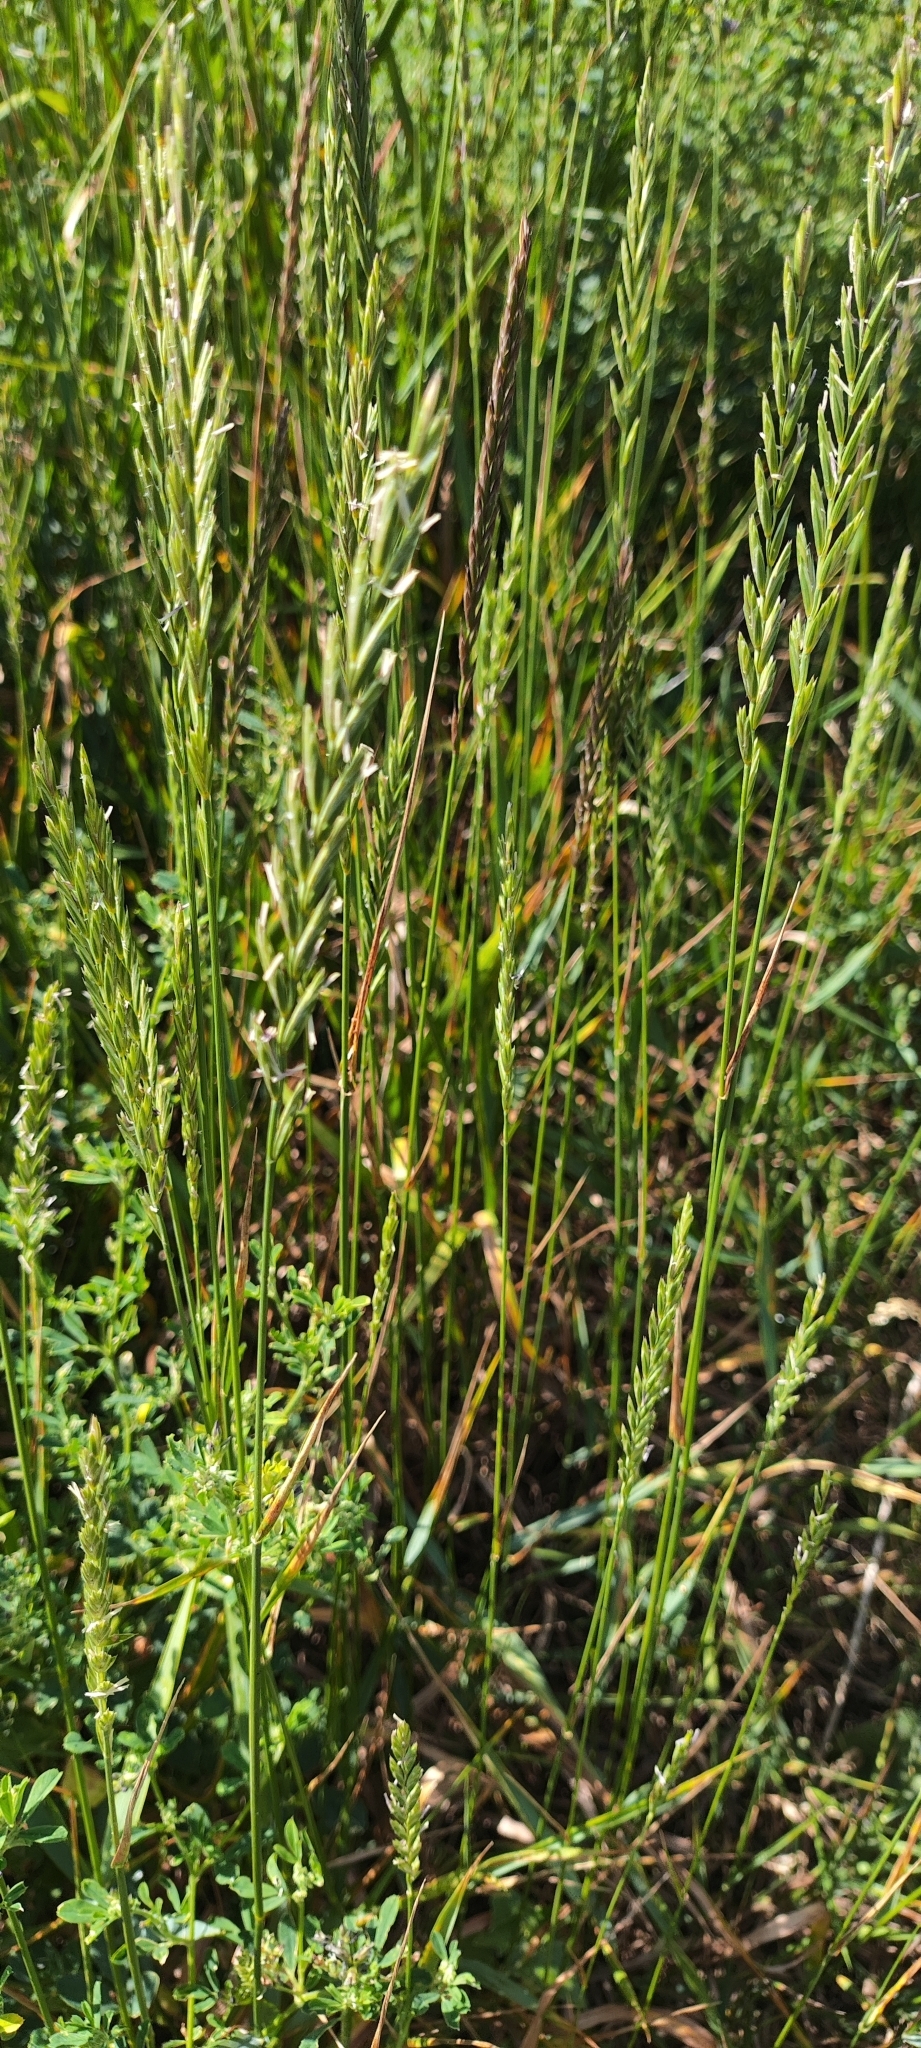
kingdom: Plantae
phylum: Tracheophyta
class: Liliopsida
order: Poales
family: Poaceae
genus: Elymus
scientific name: Elymus repens
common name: Quackgrass
